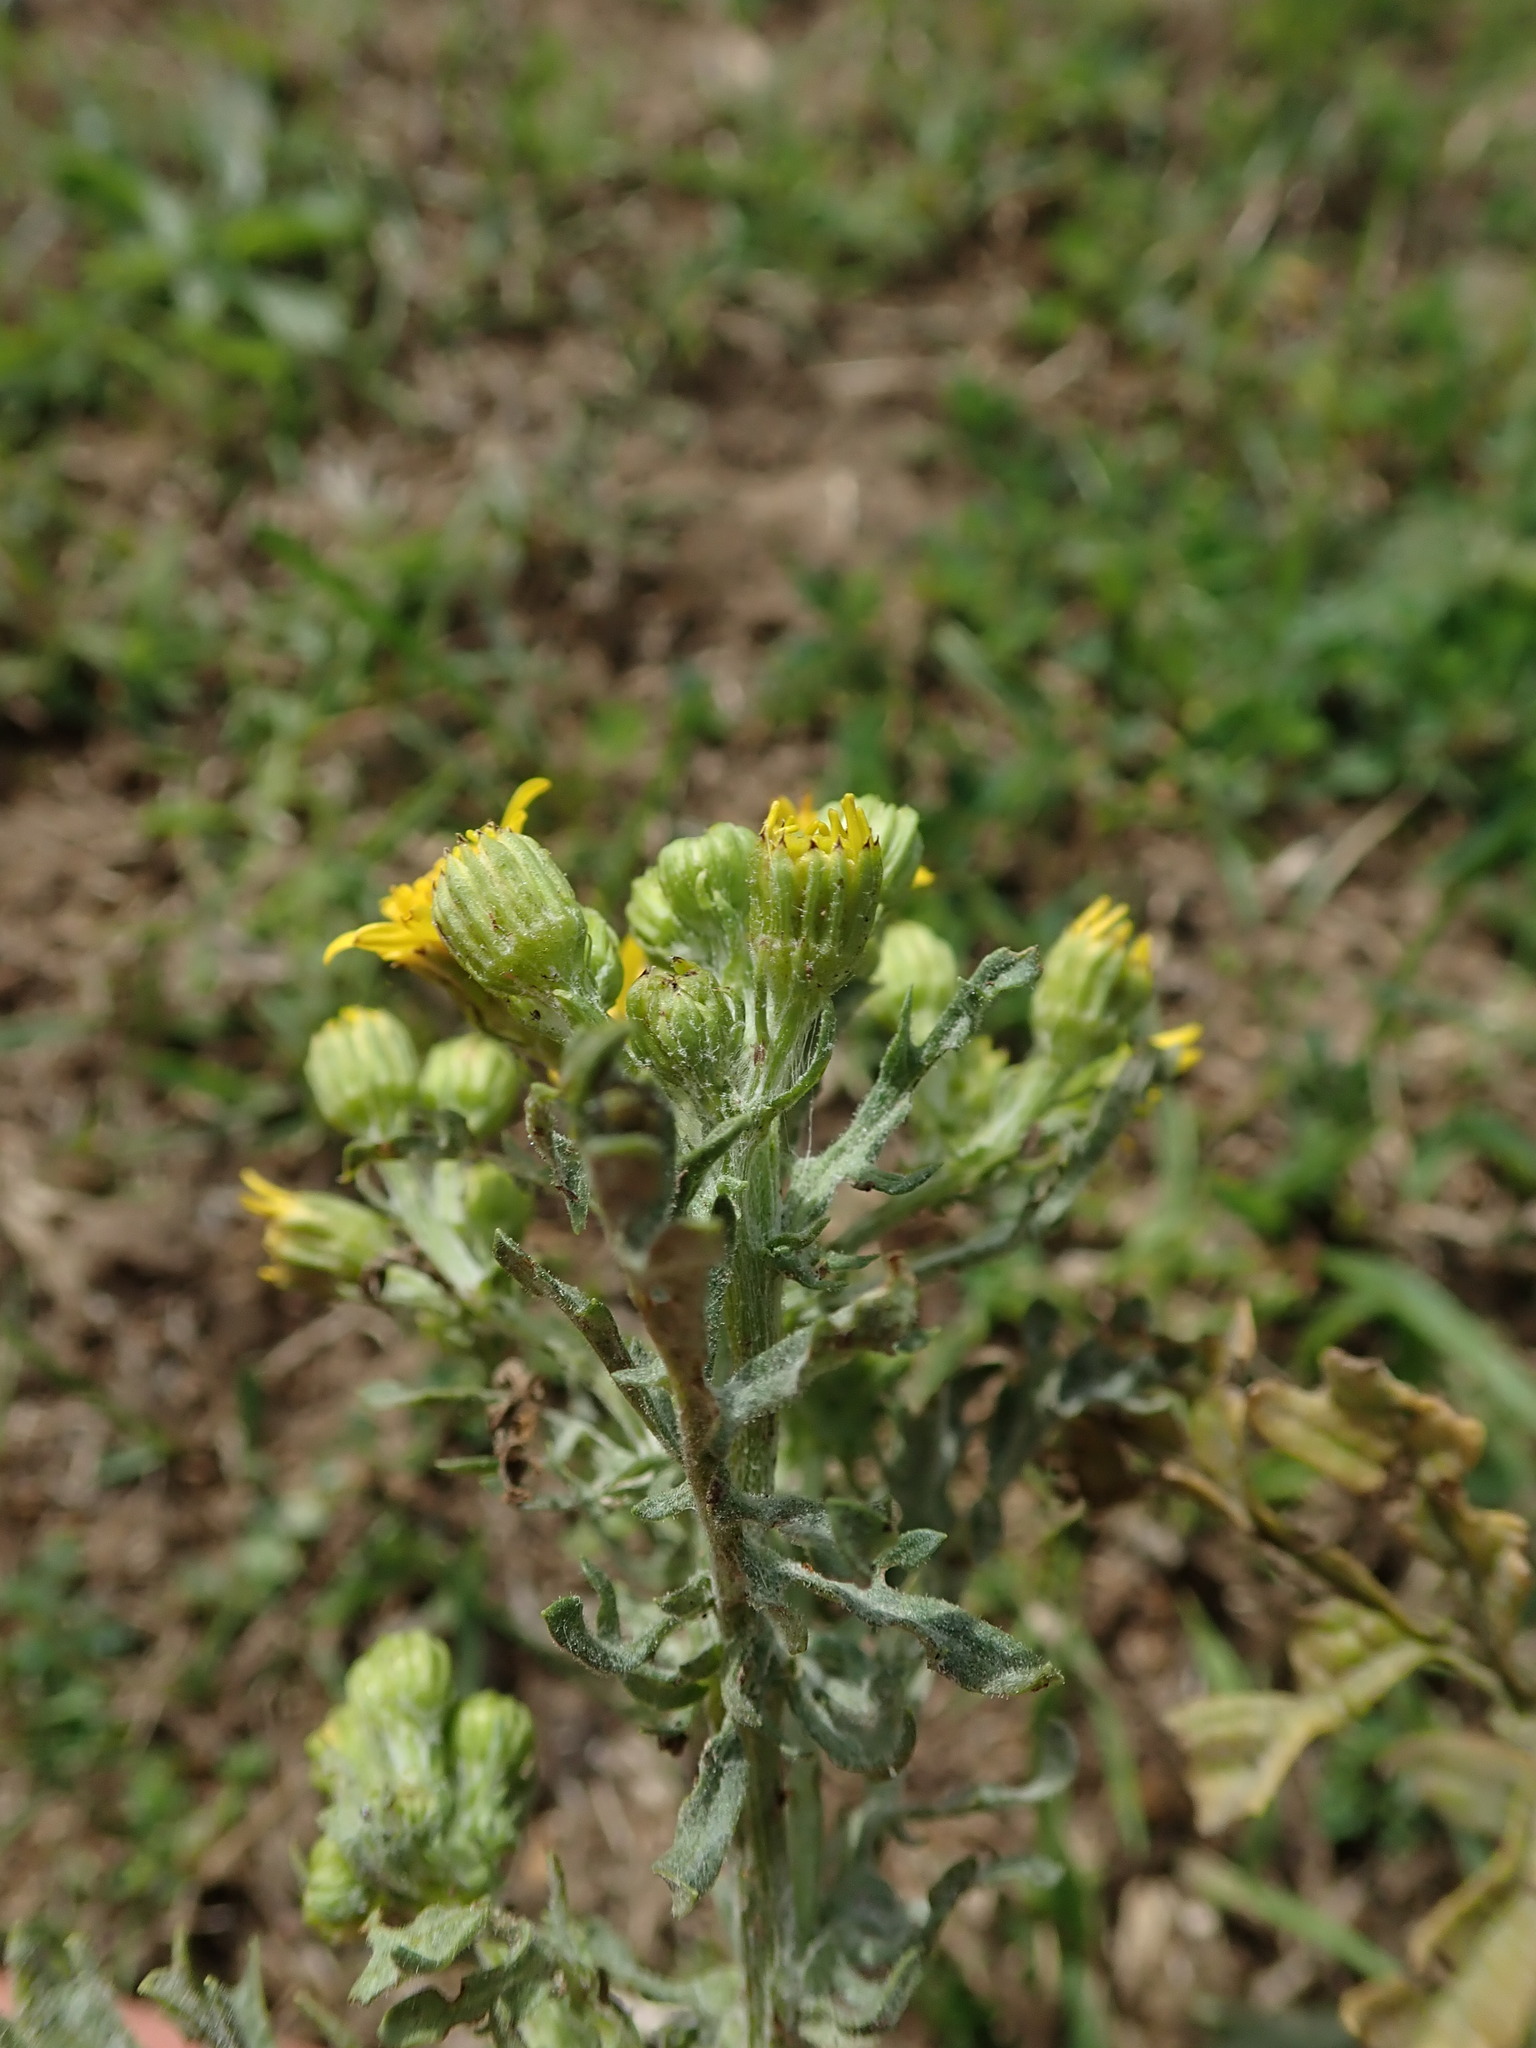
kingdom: Plantae
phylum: Tracheophyta
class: Magnoliopsida
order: Asterales
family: Asteraceae
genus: Jacobaea
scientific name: Jacobaea vulgaris
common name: Stinking willie
